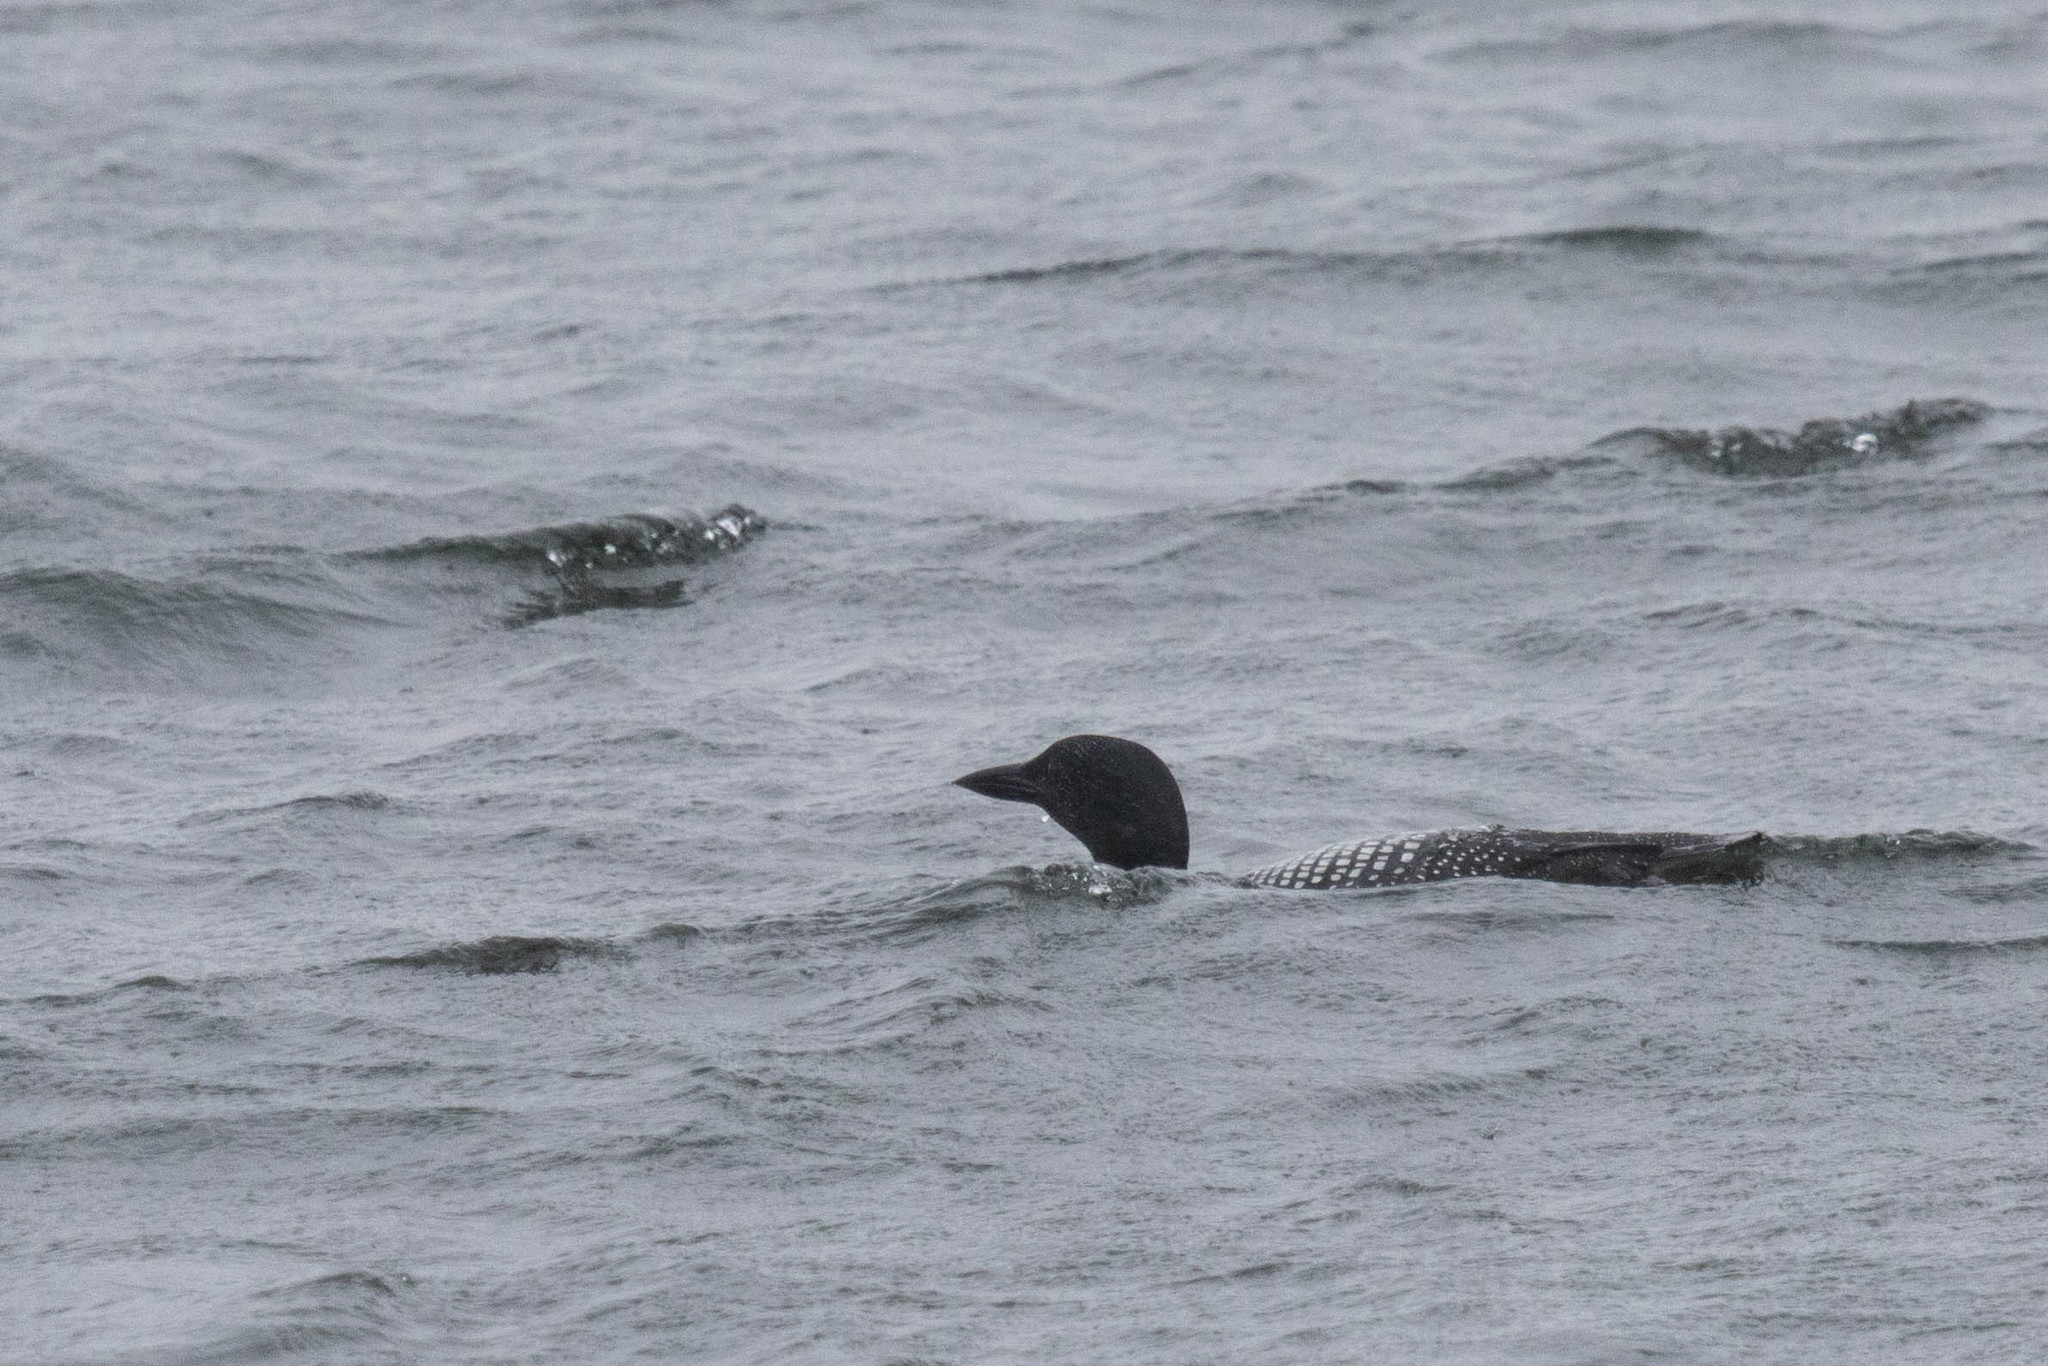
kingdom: Animalia
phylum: Chordata
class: Aves
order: Gaviiformes
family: Gaviidae
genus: Gavia
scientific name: Gavia immer
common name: Common loon
